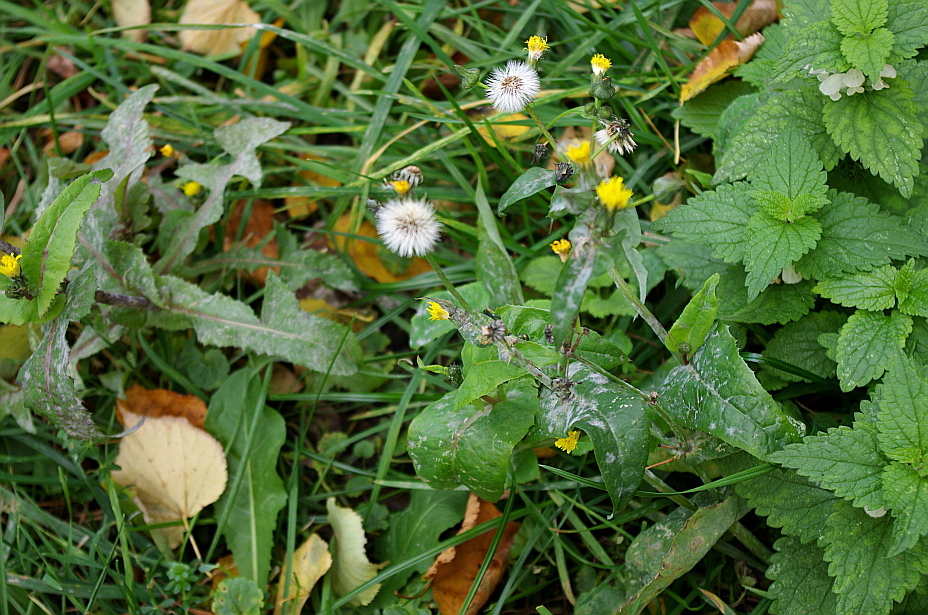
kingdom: Plantae
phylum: Tracheophyta
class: Magnoliopsida
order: Asterales
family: Asteraceae
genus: Sonchus
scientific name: Sonchus oleraceus
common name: Common sowthistle
